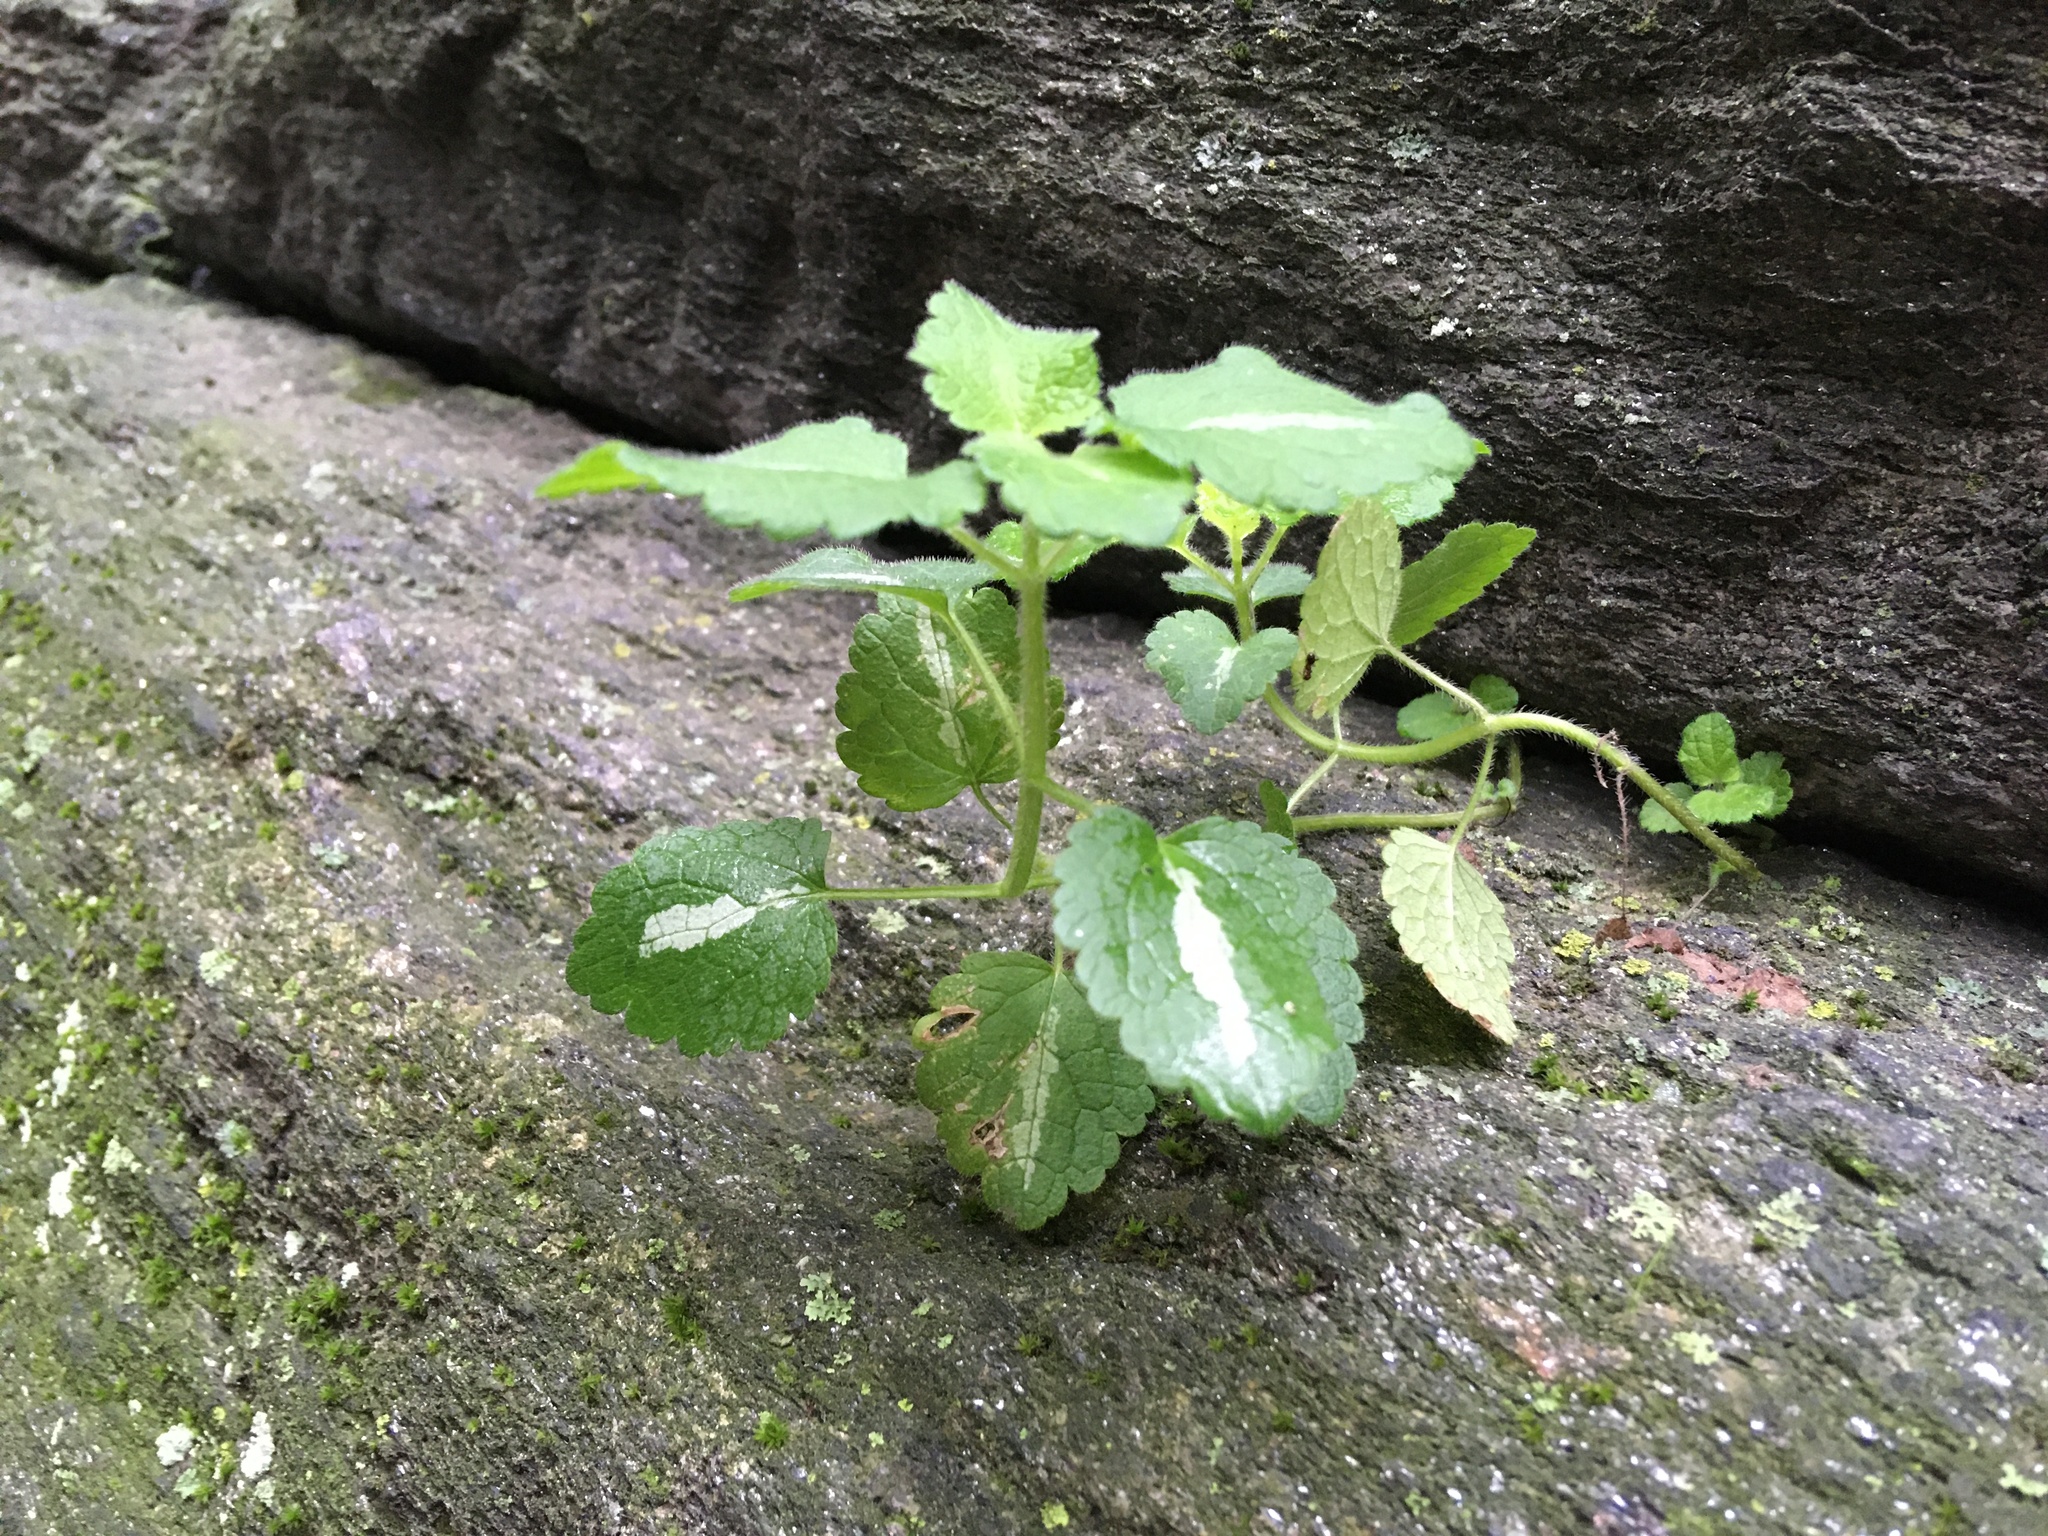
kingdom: Plantae
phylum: Tracheophyta
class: Magnoliopsida
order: Lamiales
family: Lamiaceae
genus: Lamium
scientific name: Lamium maculatum
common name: Spotted dead-nettle
